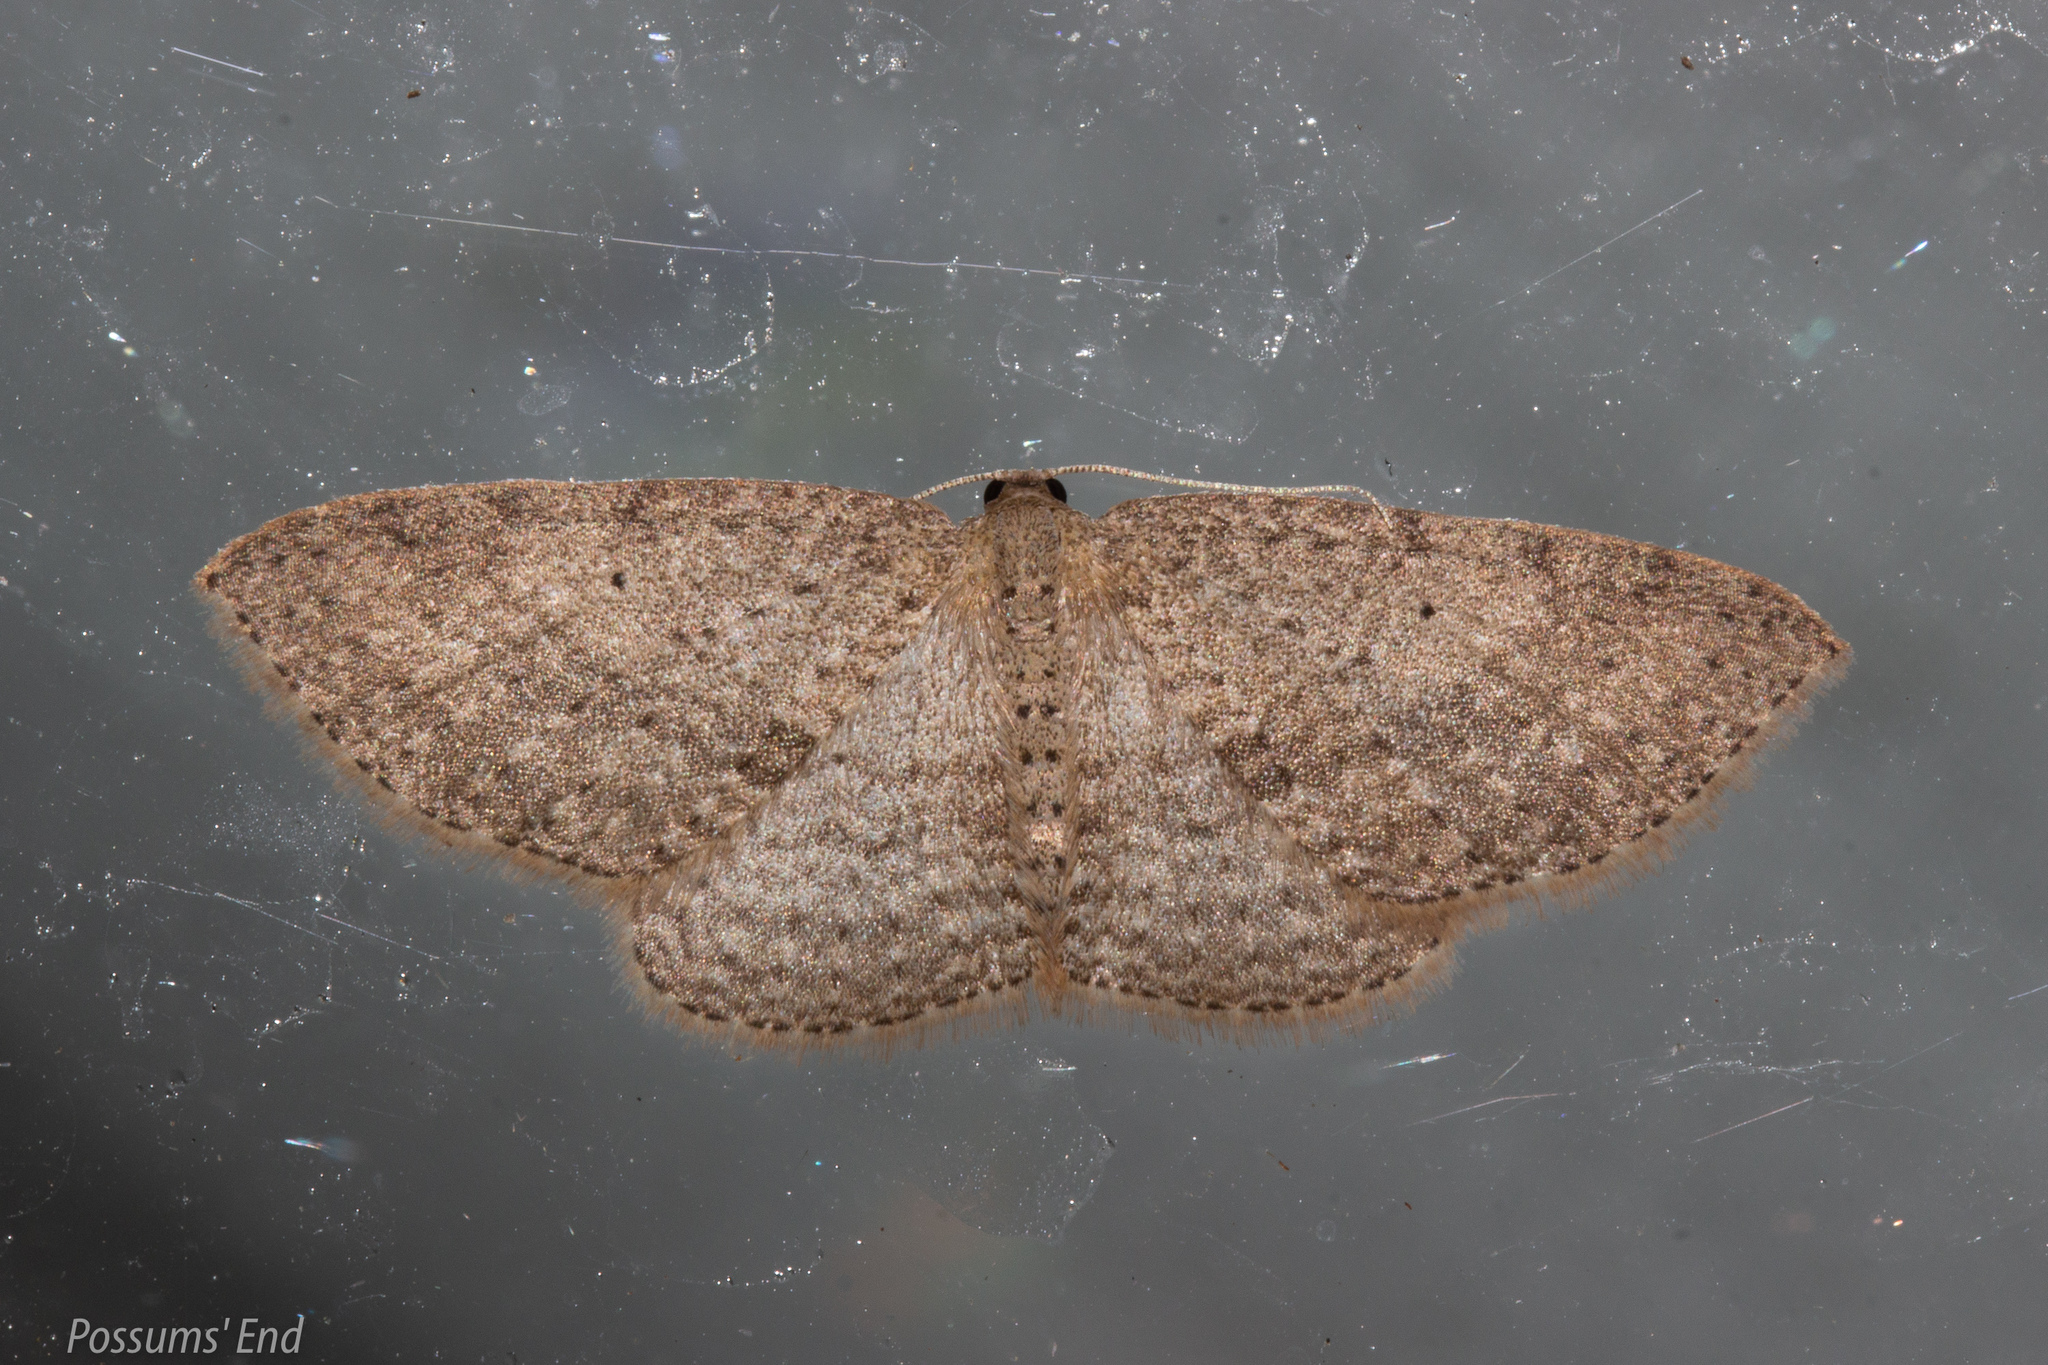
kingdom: Animalia
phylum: Arthropoda
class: Insecta
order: Lepidoptera
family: Geometridae
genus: Poecilasthena
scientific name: Poecilasthena schistaria
